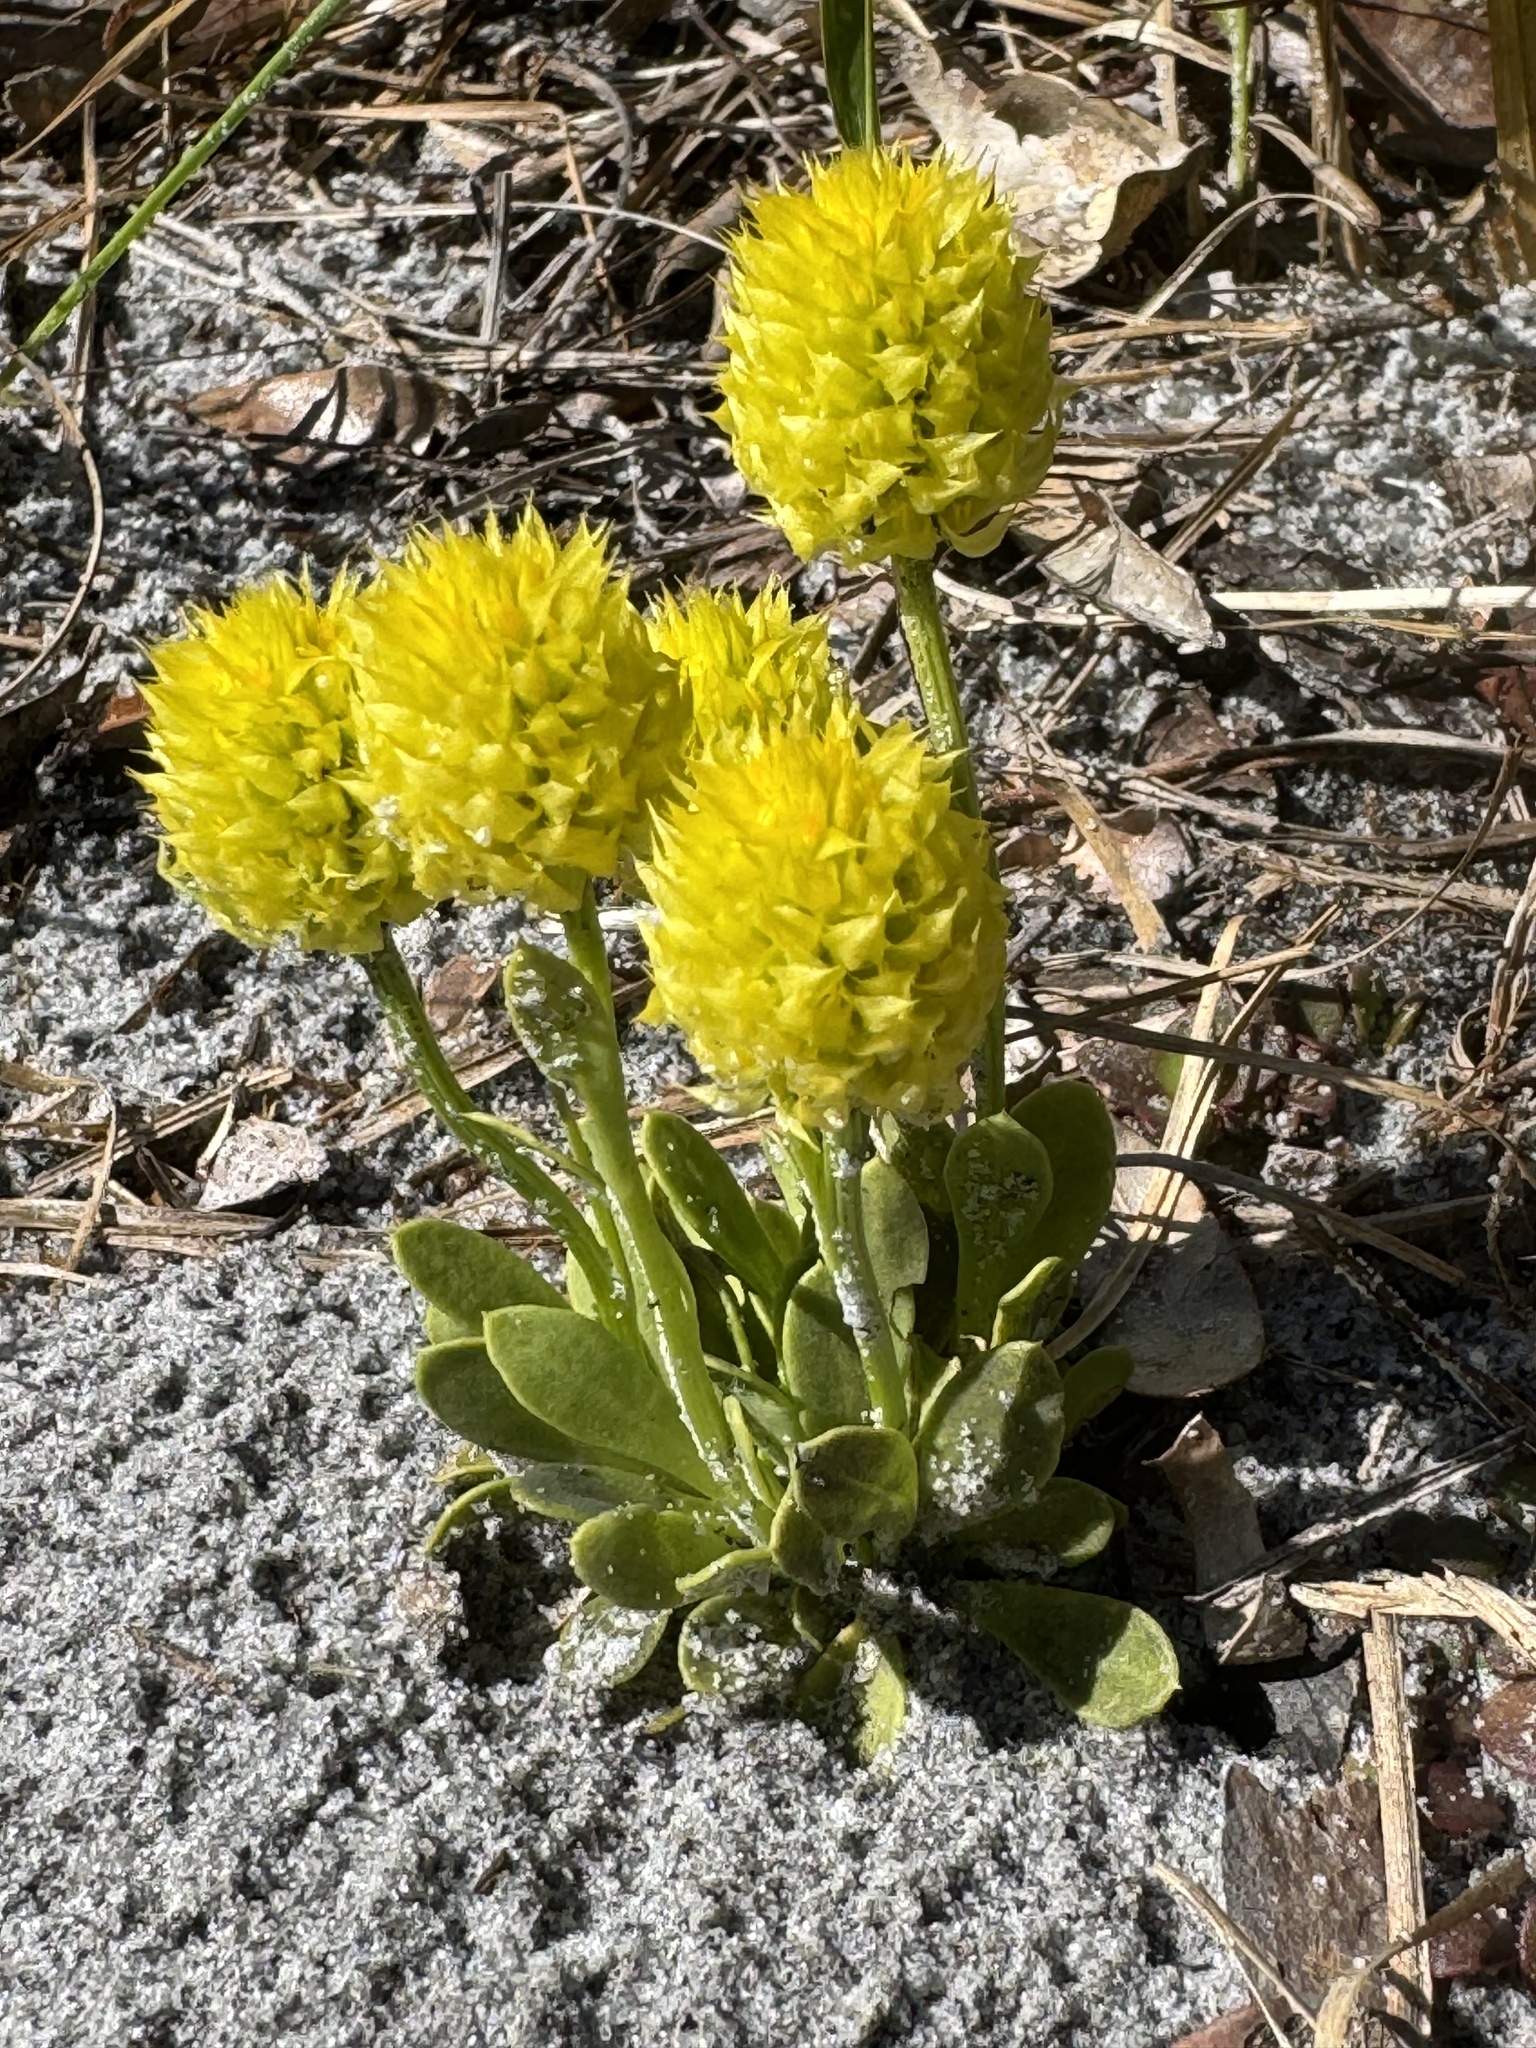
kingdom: Plantae
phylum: Tracheophyta
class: Magnoliopsida
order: Fabales
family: Polygalaceae
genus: Polygala
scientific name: Polygala nana
